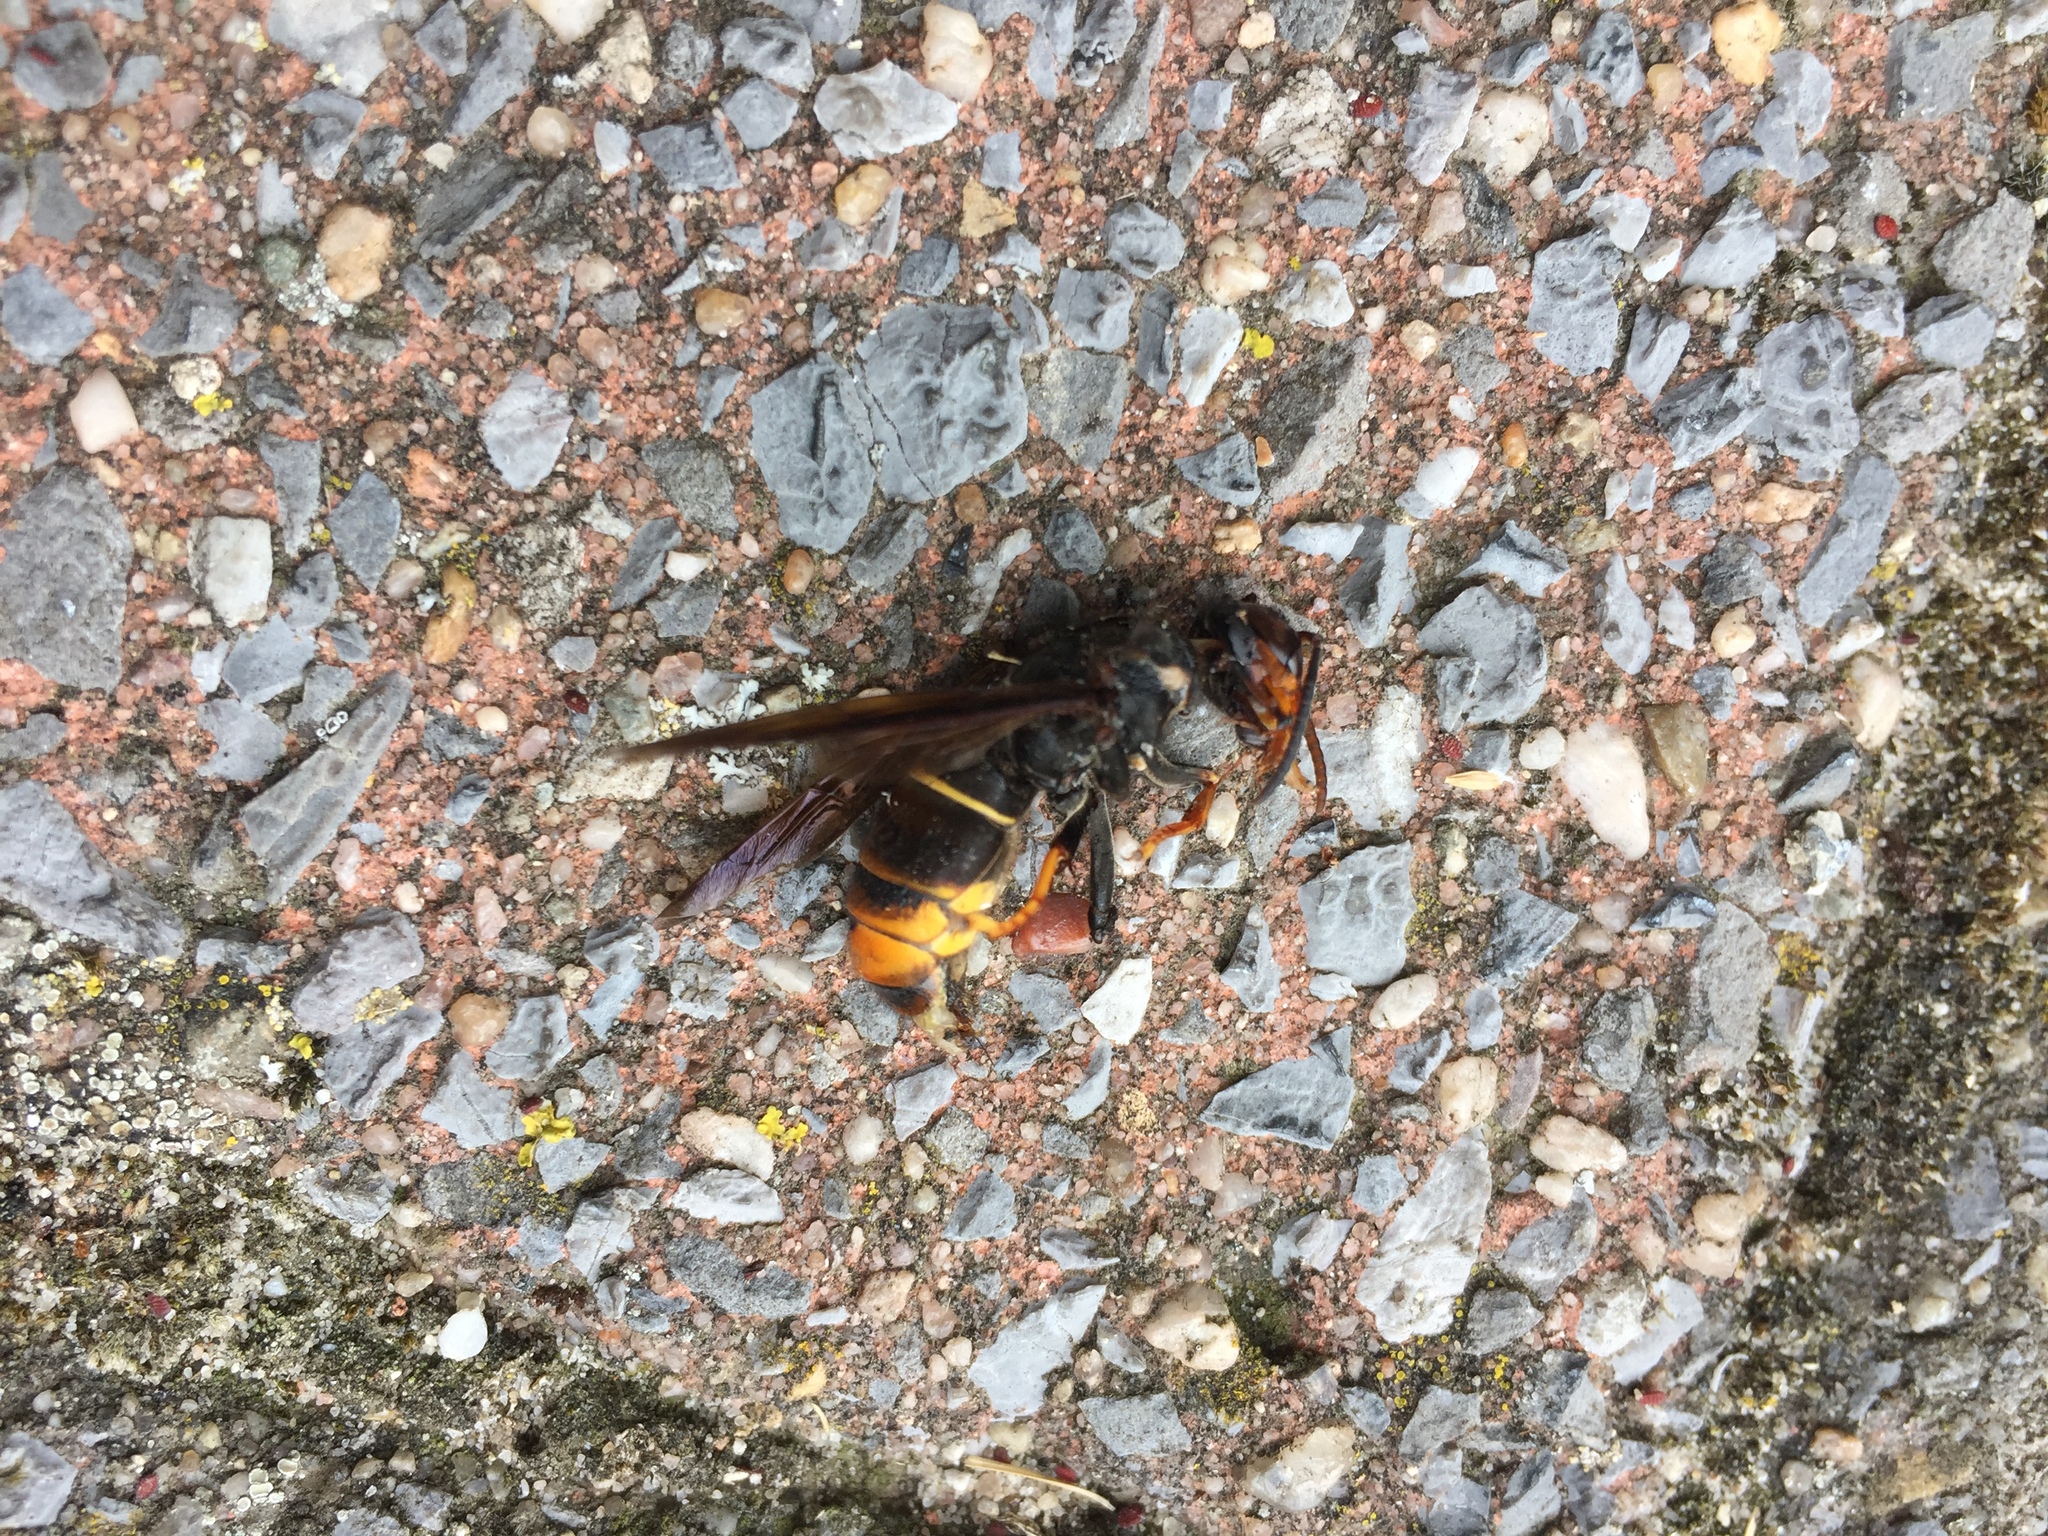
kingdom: Animalia
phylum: Arthropoda
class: Insecta
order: Hymenoptera
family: Vespidae
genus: Vespa
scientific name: Vespa velutina
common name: Asian hornet
